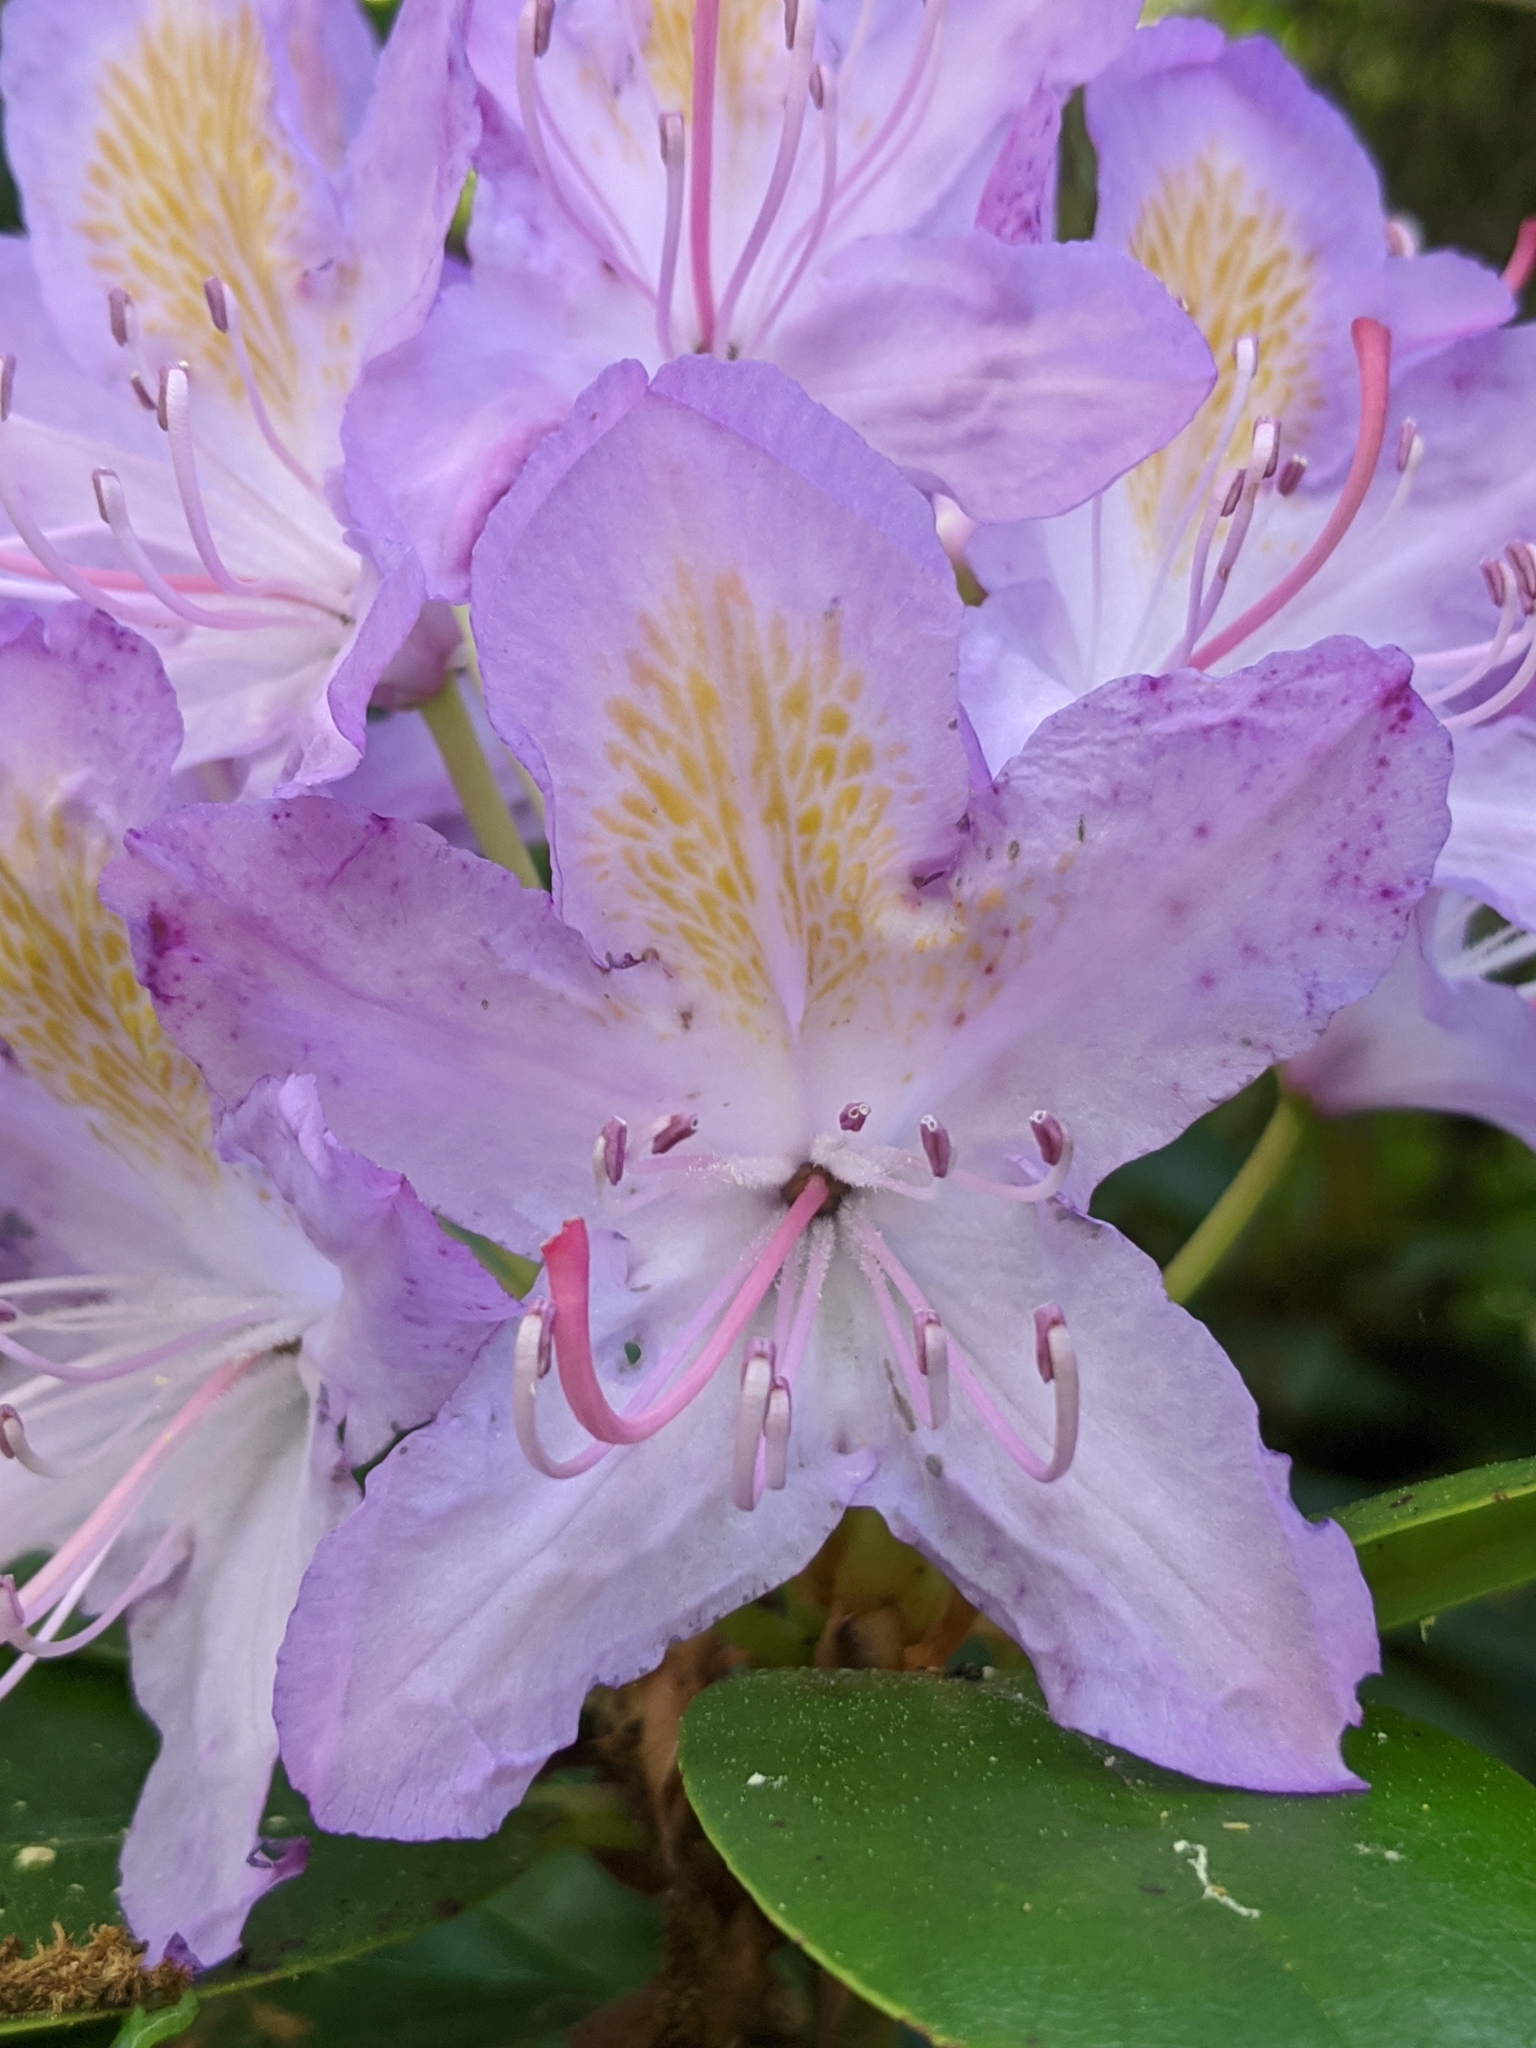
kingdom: Plantae
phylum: Tracheophyta
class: Magnoliopsida
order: Ericales
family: Ericaceae
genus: Rhododendron
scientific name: Rhododendron ponticum
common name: Rhododendron
